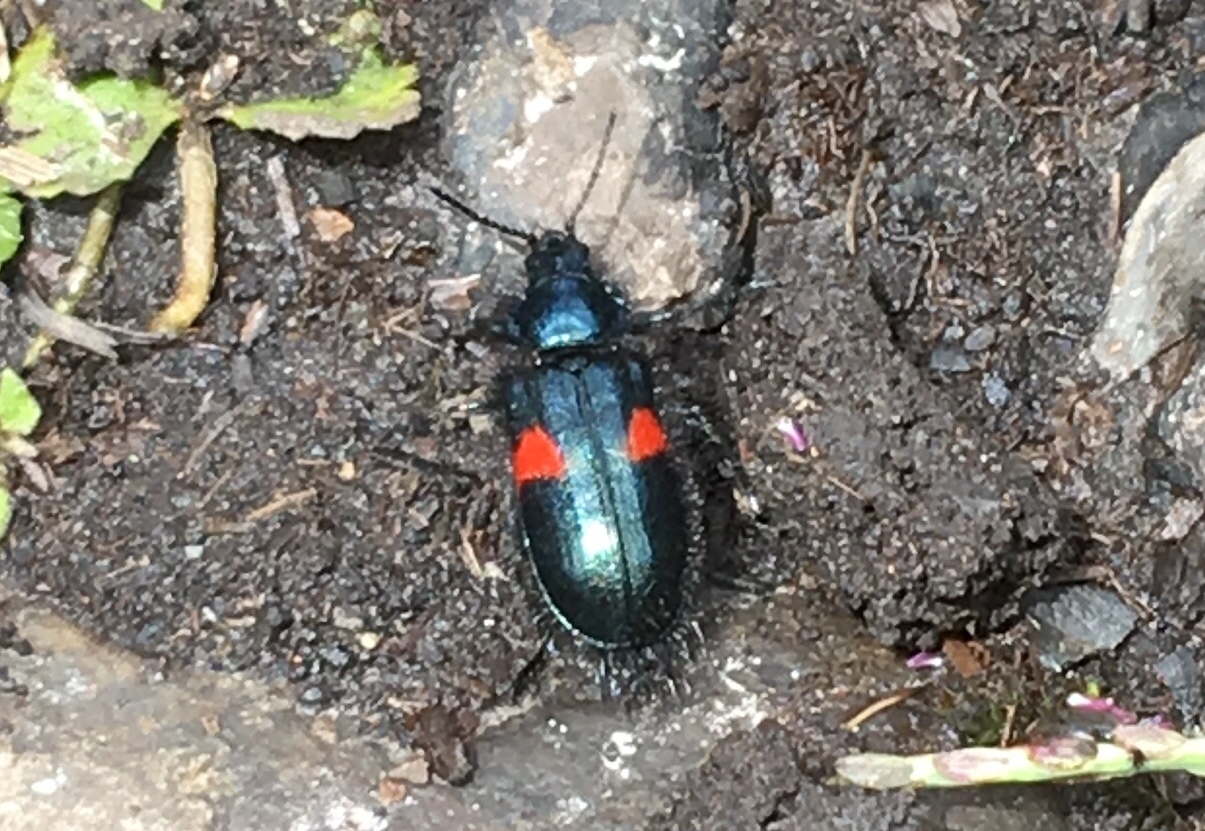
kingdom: Animalia
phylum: Arthropoda
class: Insecta
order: Coleoptera
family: Melyridae
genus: Astylus
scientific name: Astylus
